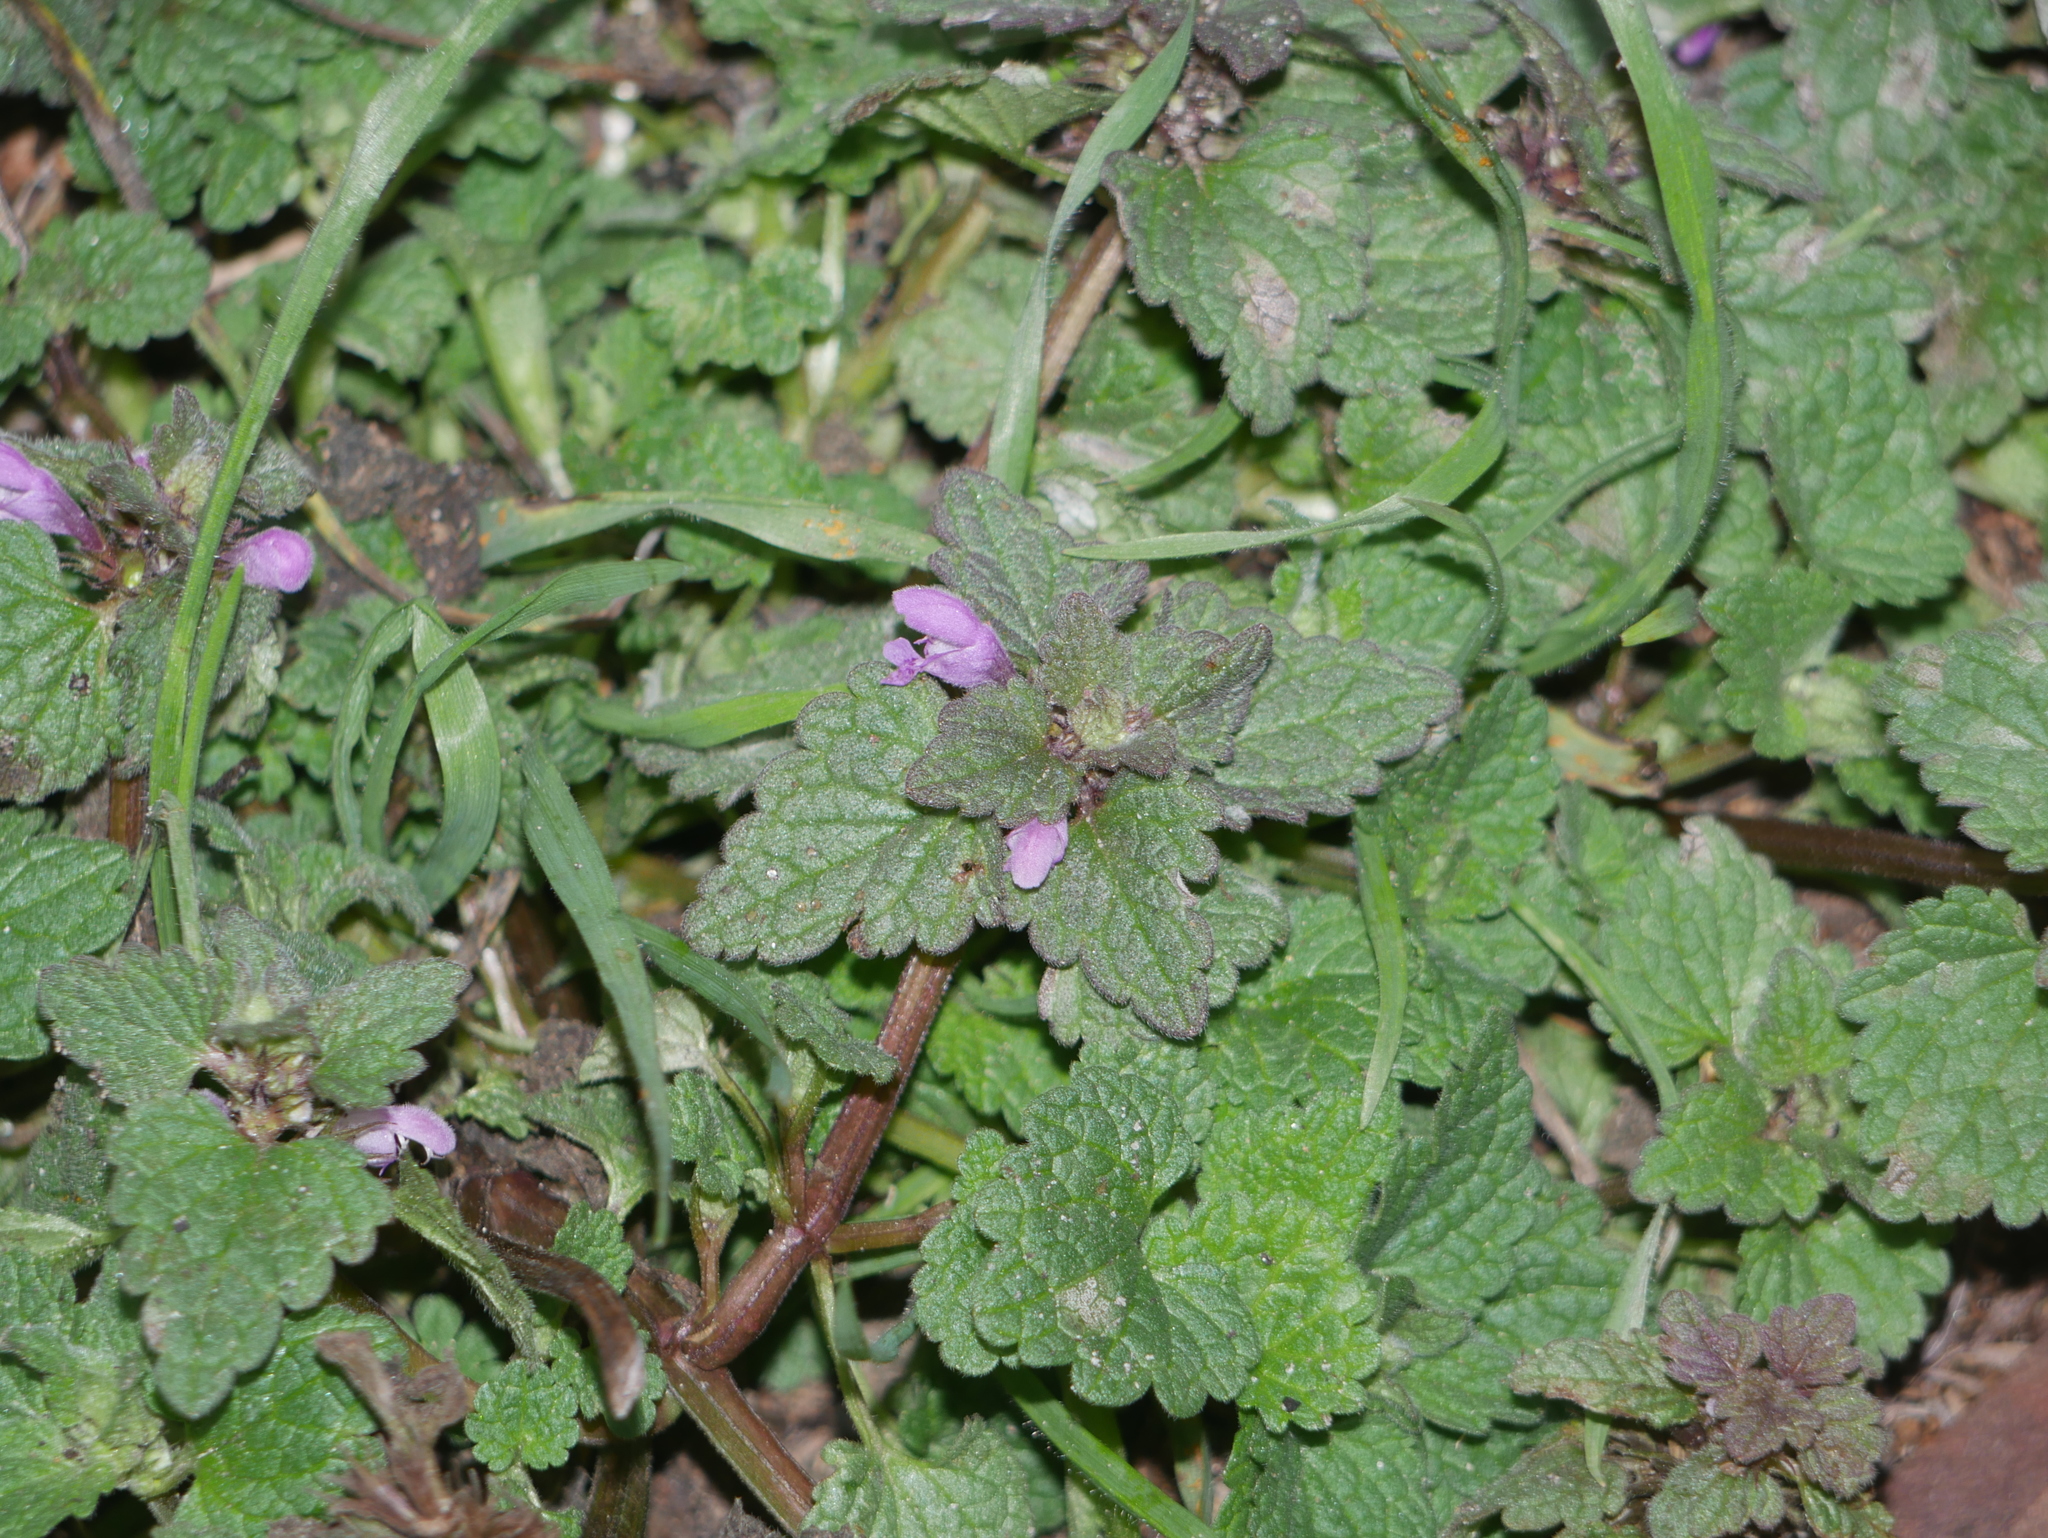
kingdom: Plantae
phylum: Tracheophyta
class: Magnoliopsida
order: Lamiales
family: Lamiaceae
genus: Lamium
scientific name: Lamium purpureum
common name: Red dead-nettle
